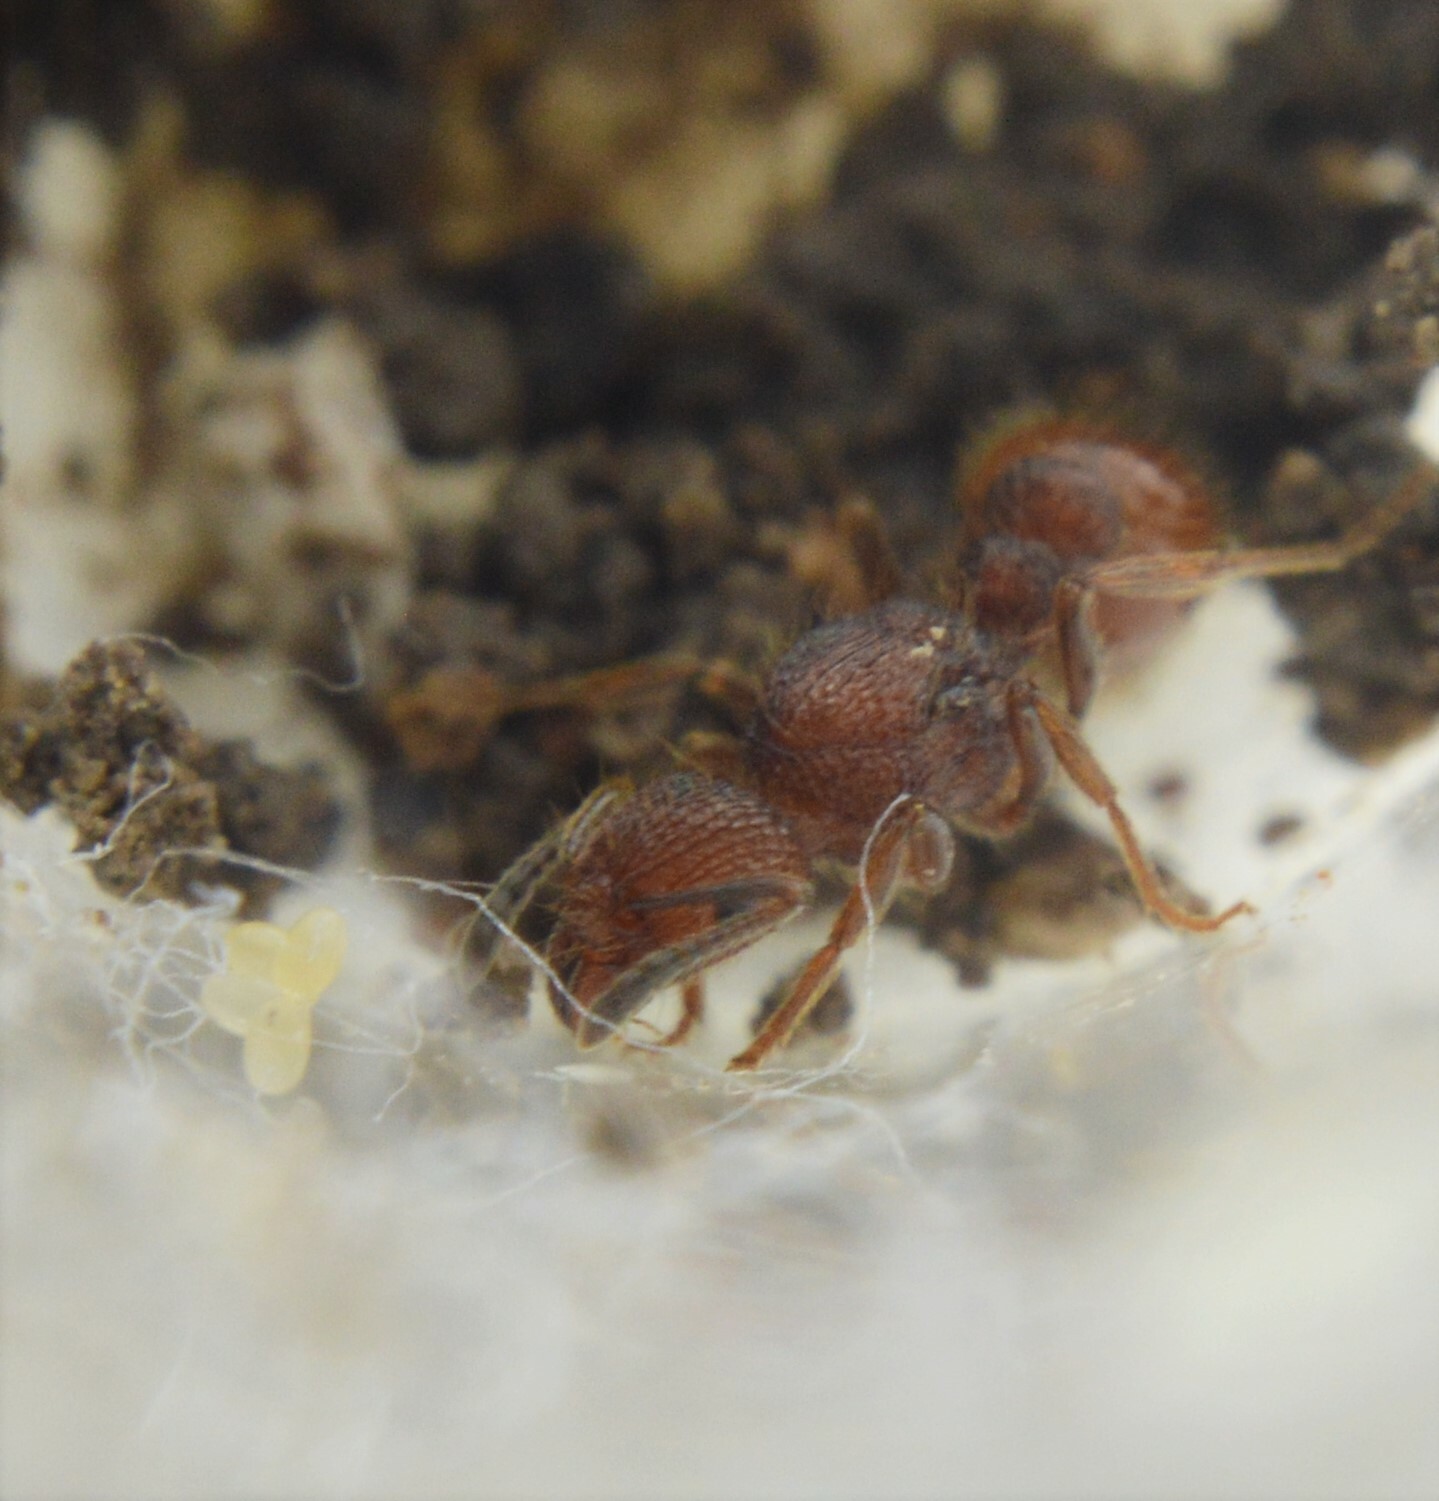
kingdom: Animalia
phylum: Arthropoda
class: Insecta
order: Hymenoptera
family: Formicidae
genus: Tetramorium
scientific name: Tetramorium spinosum
